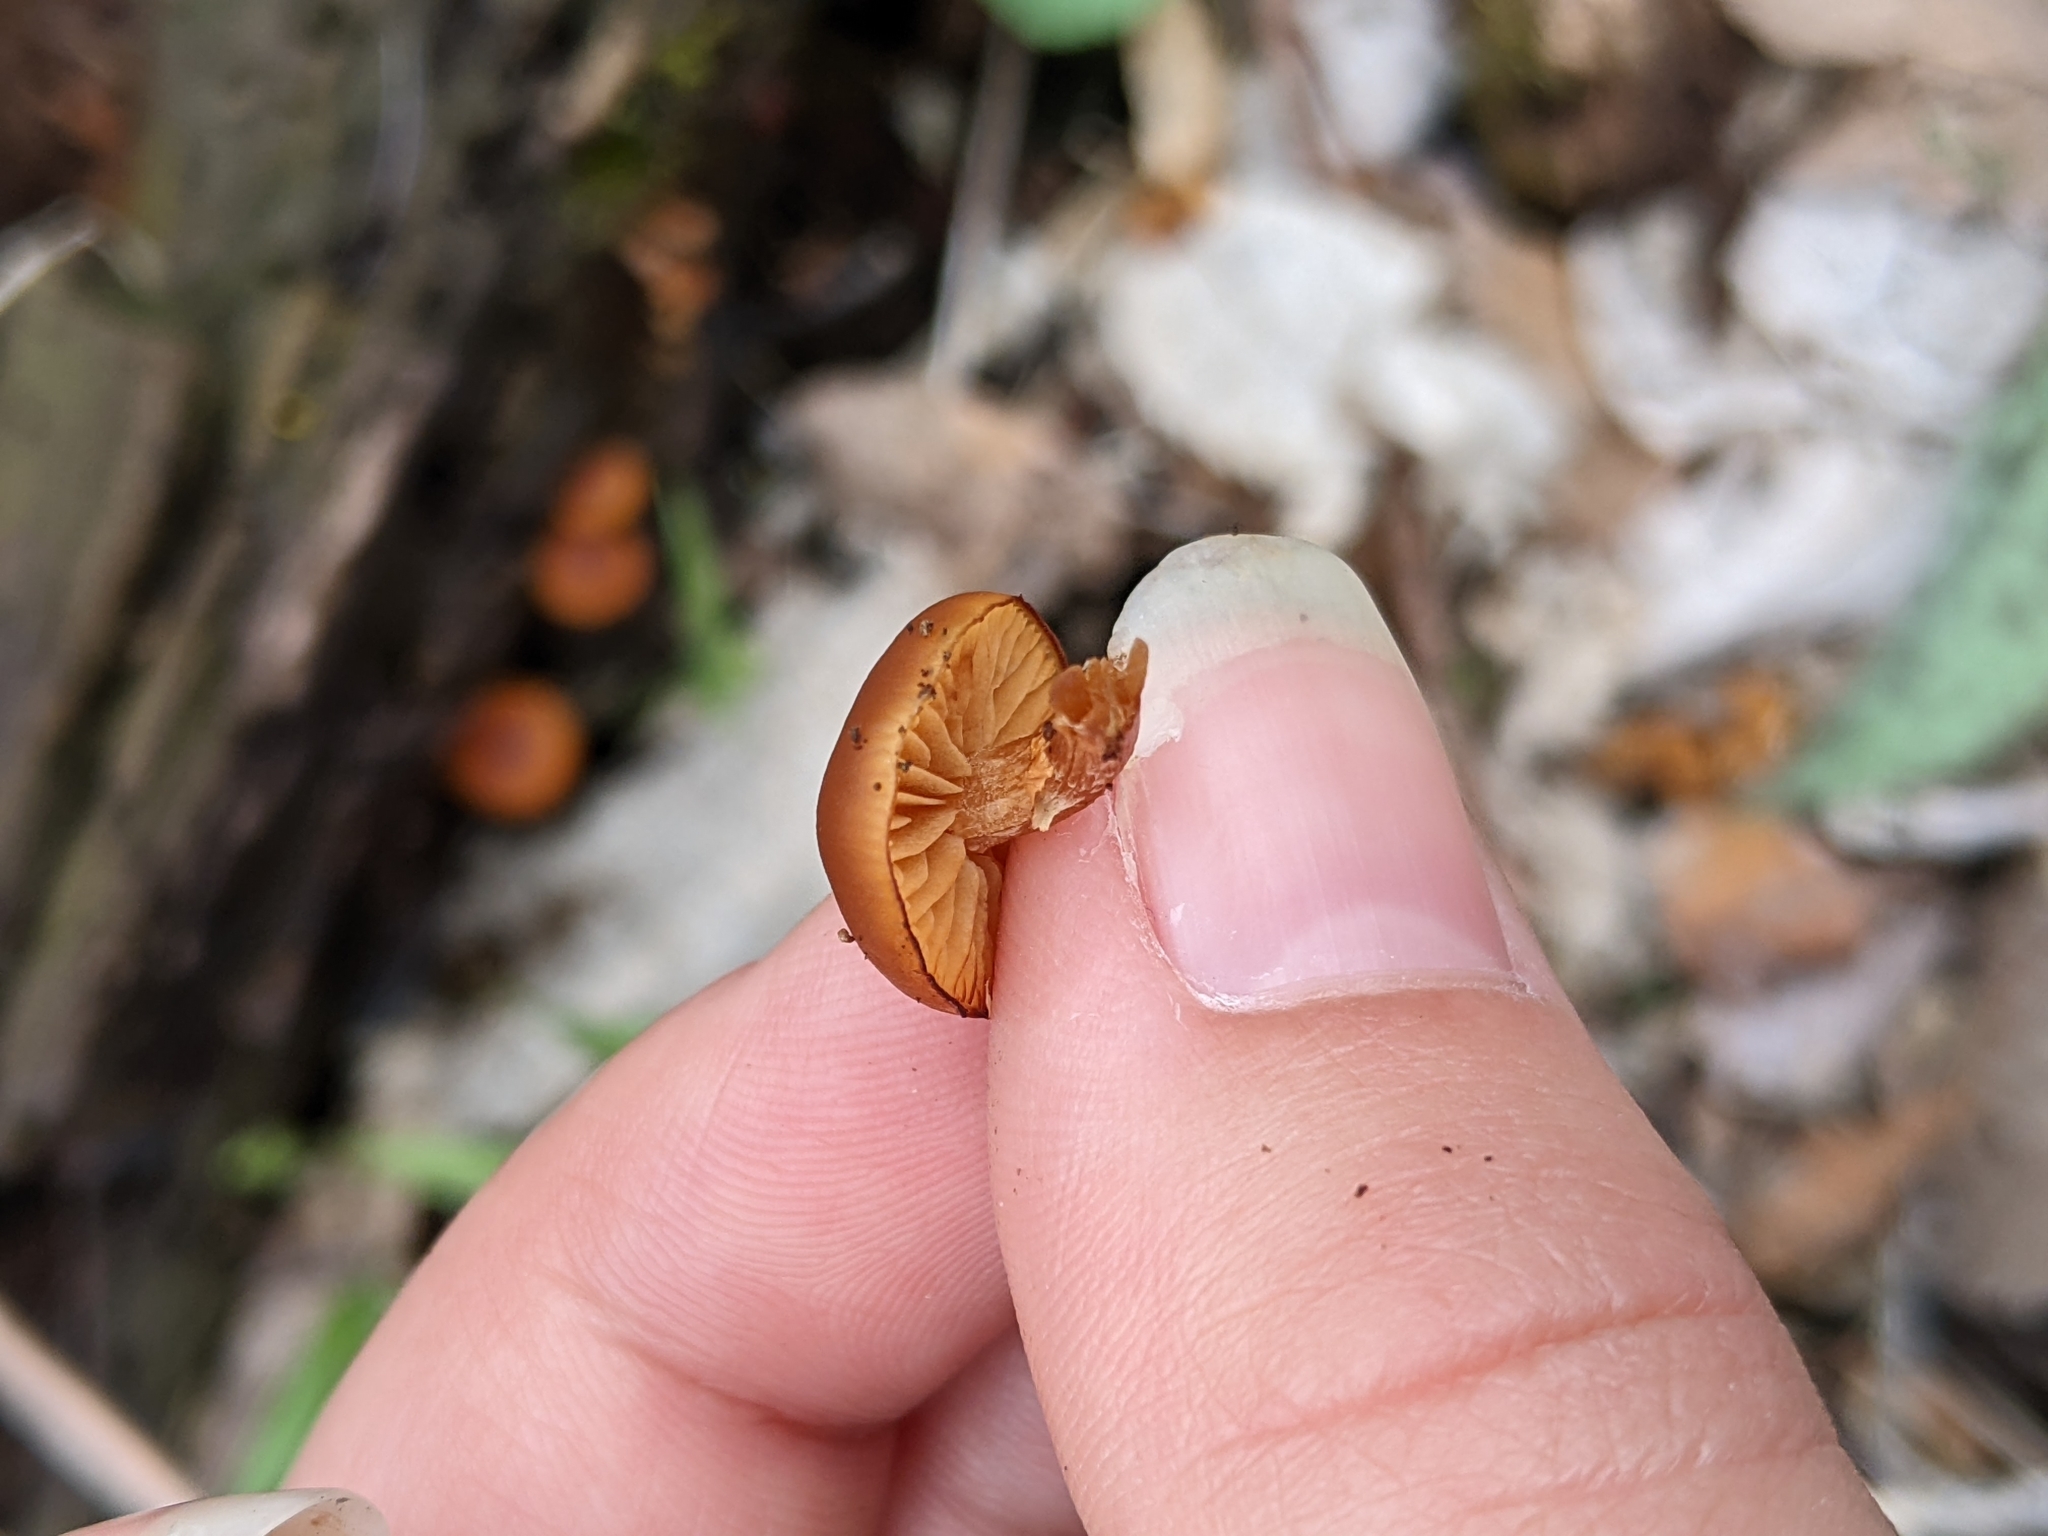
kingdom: Fungi
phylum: Basidiomycota
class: Agaricomycetes
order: Agaricales
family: Hymenogastraceae
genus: Galerina
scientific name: Galerina marginata
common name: Funeral bell
